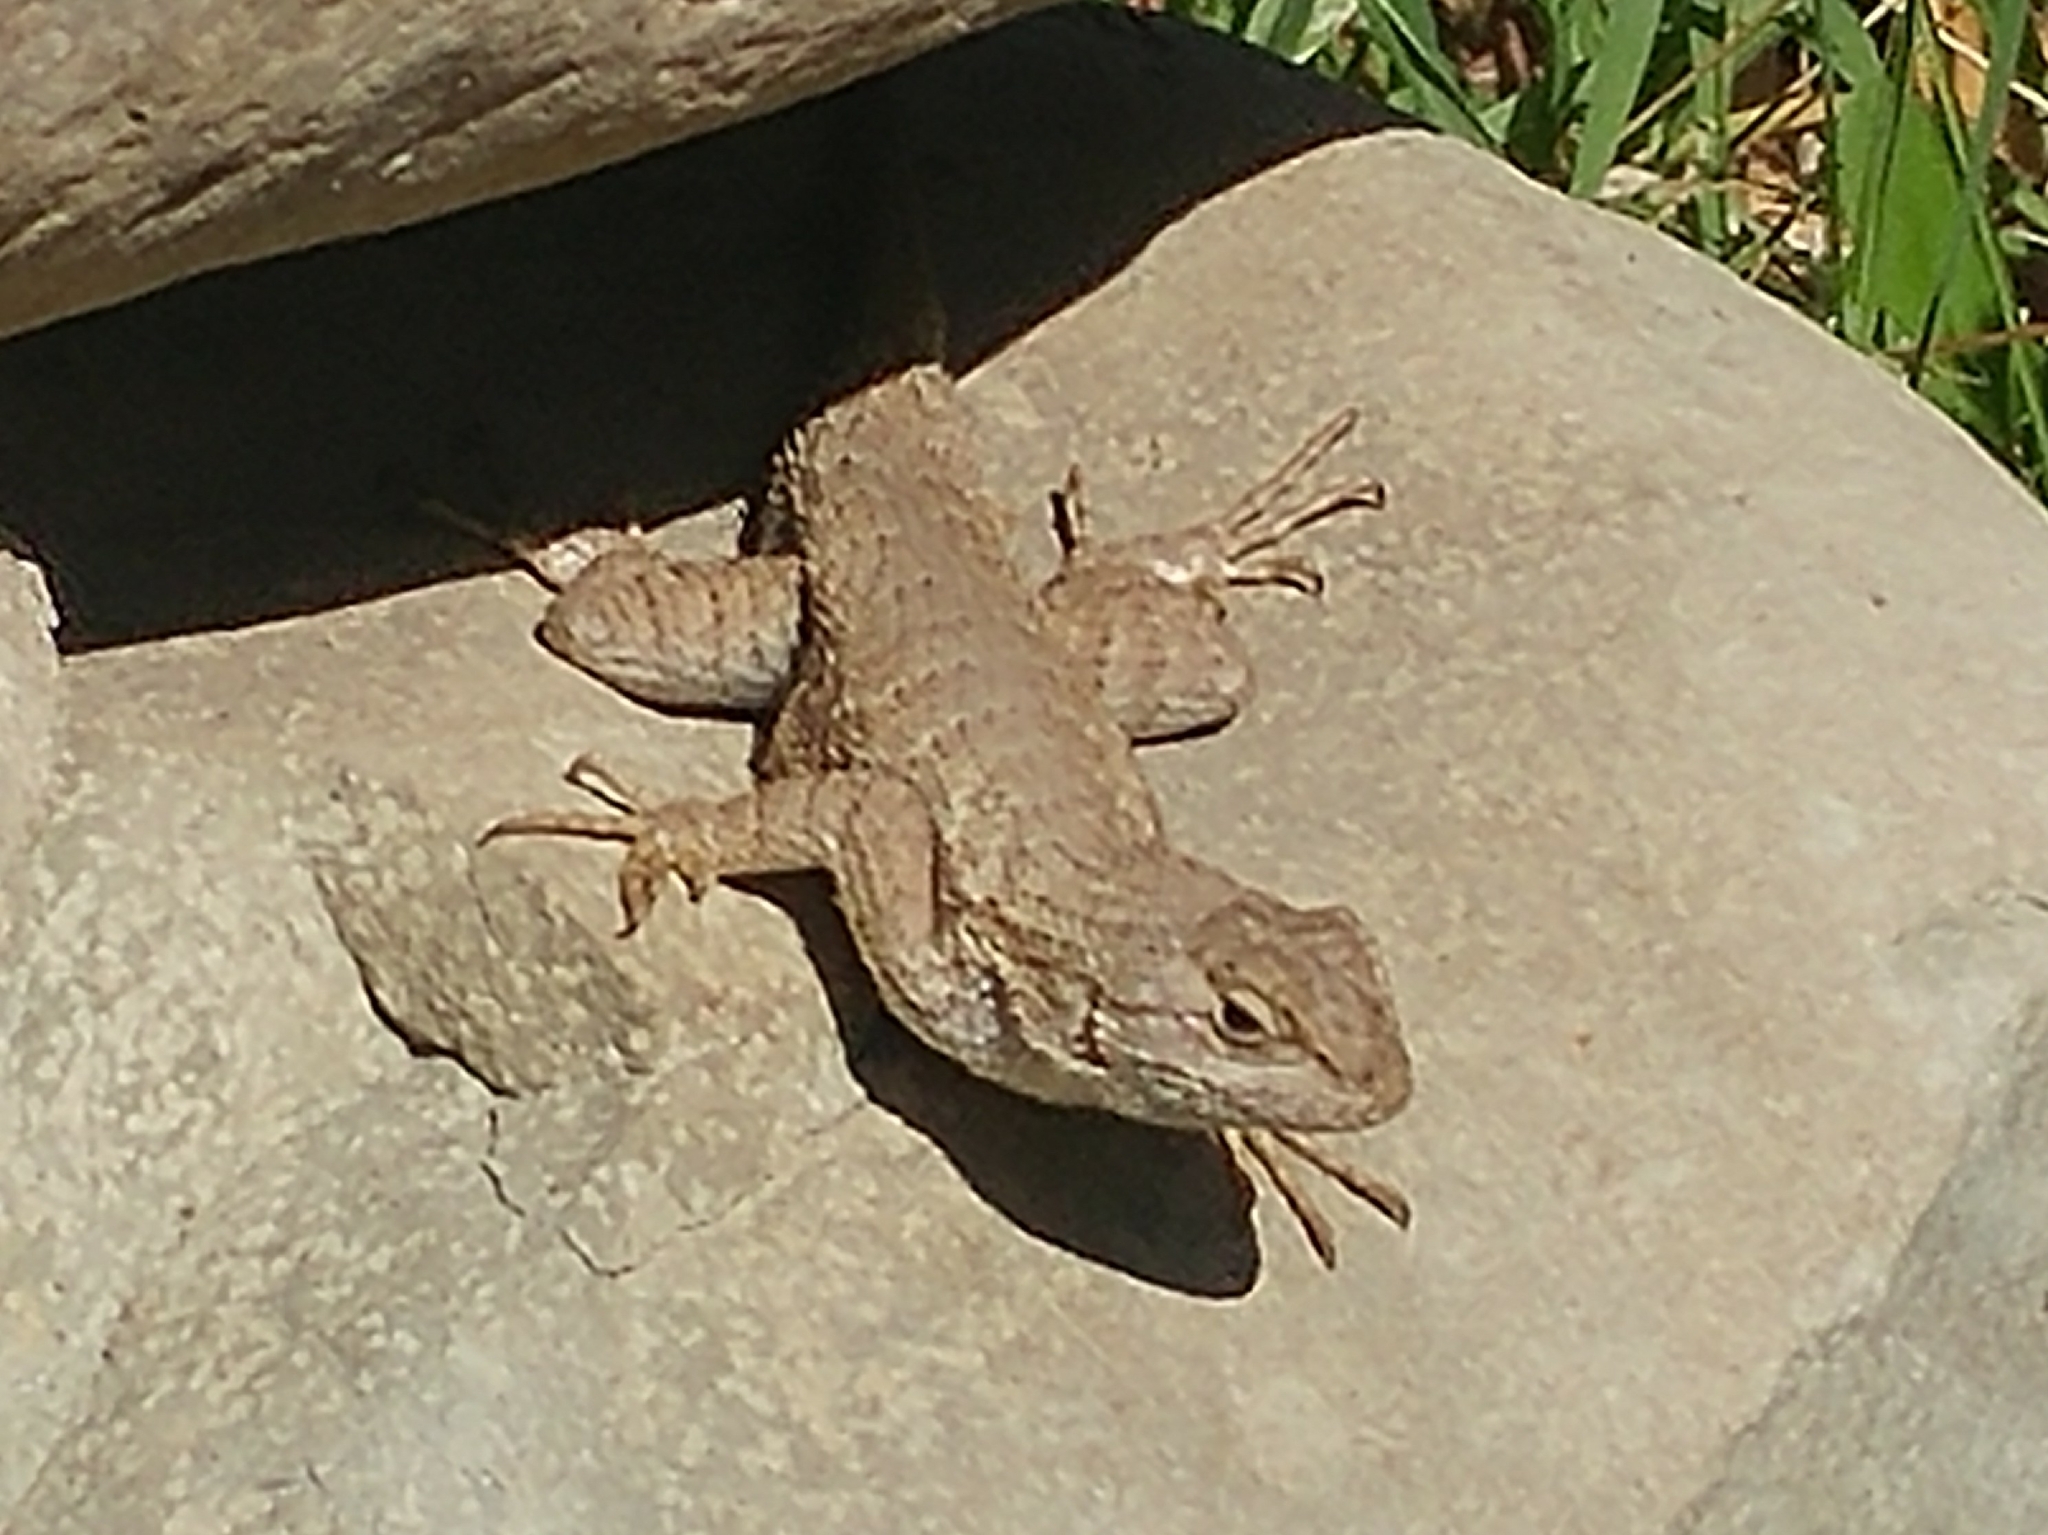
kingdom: Animalia
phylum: Chordata
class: Squamata
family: Phrynosomatidae
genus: Sceloporus
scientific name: Sceloporus occidentalis
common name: Western fence lizard
